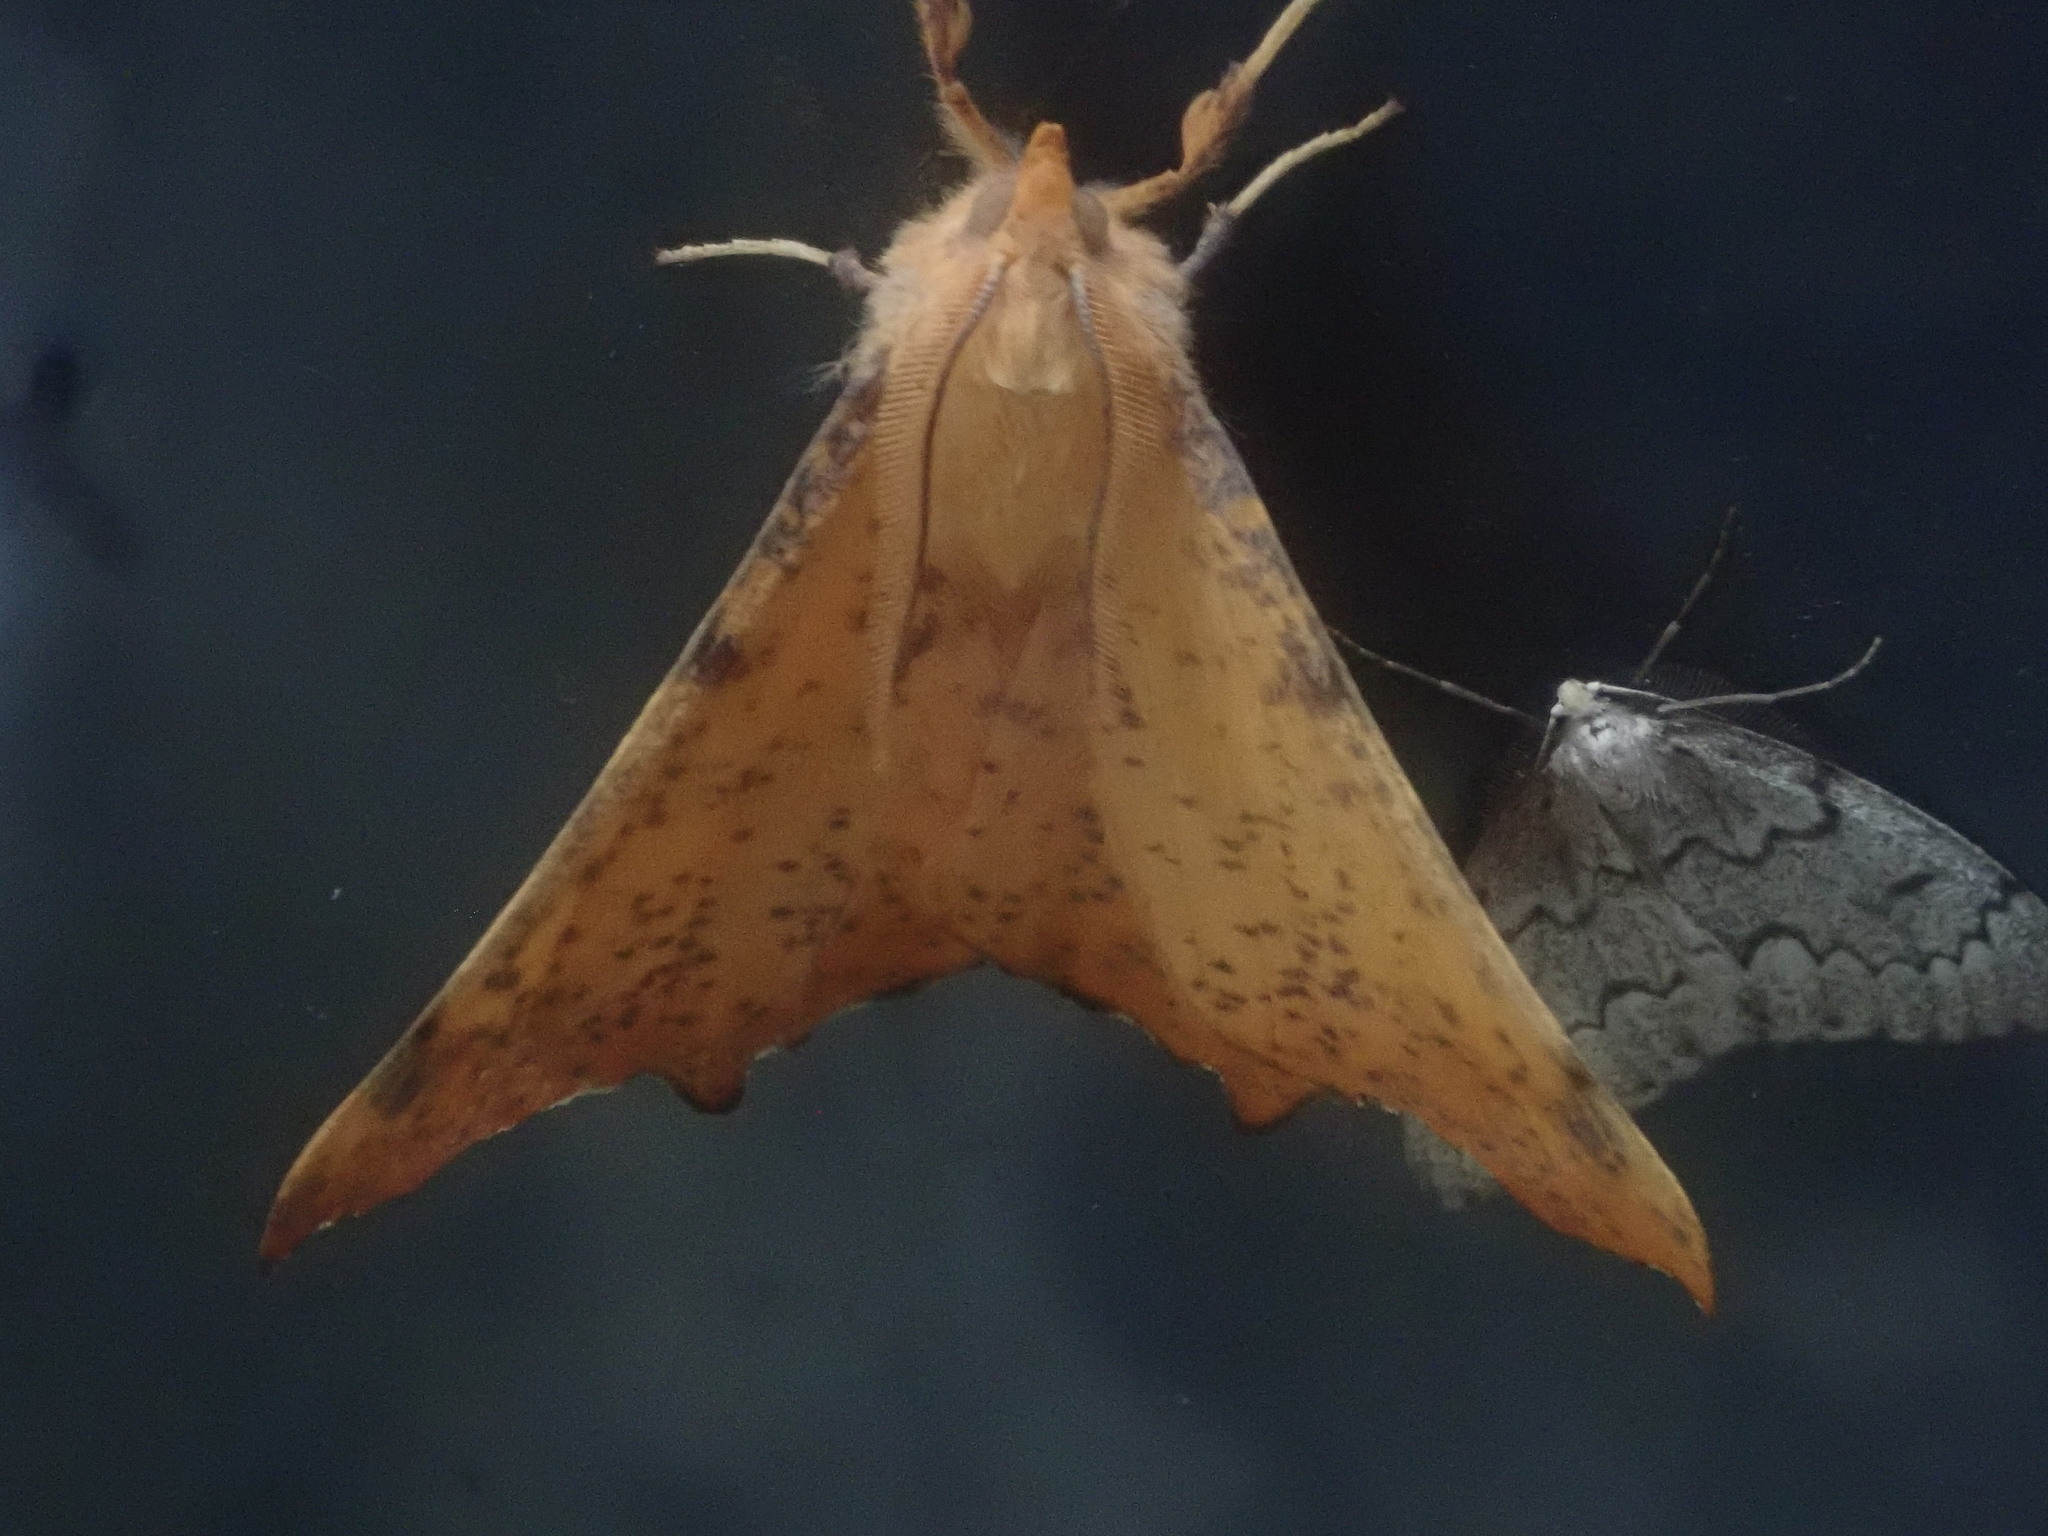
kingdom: Animalia
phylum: Arthropoda
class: Insecta
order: Lepidoptera
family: Geometridae
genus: Ennomos
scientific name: Ennomos magnaria
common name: Maple spanworm
